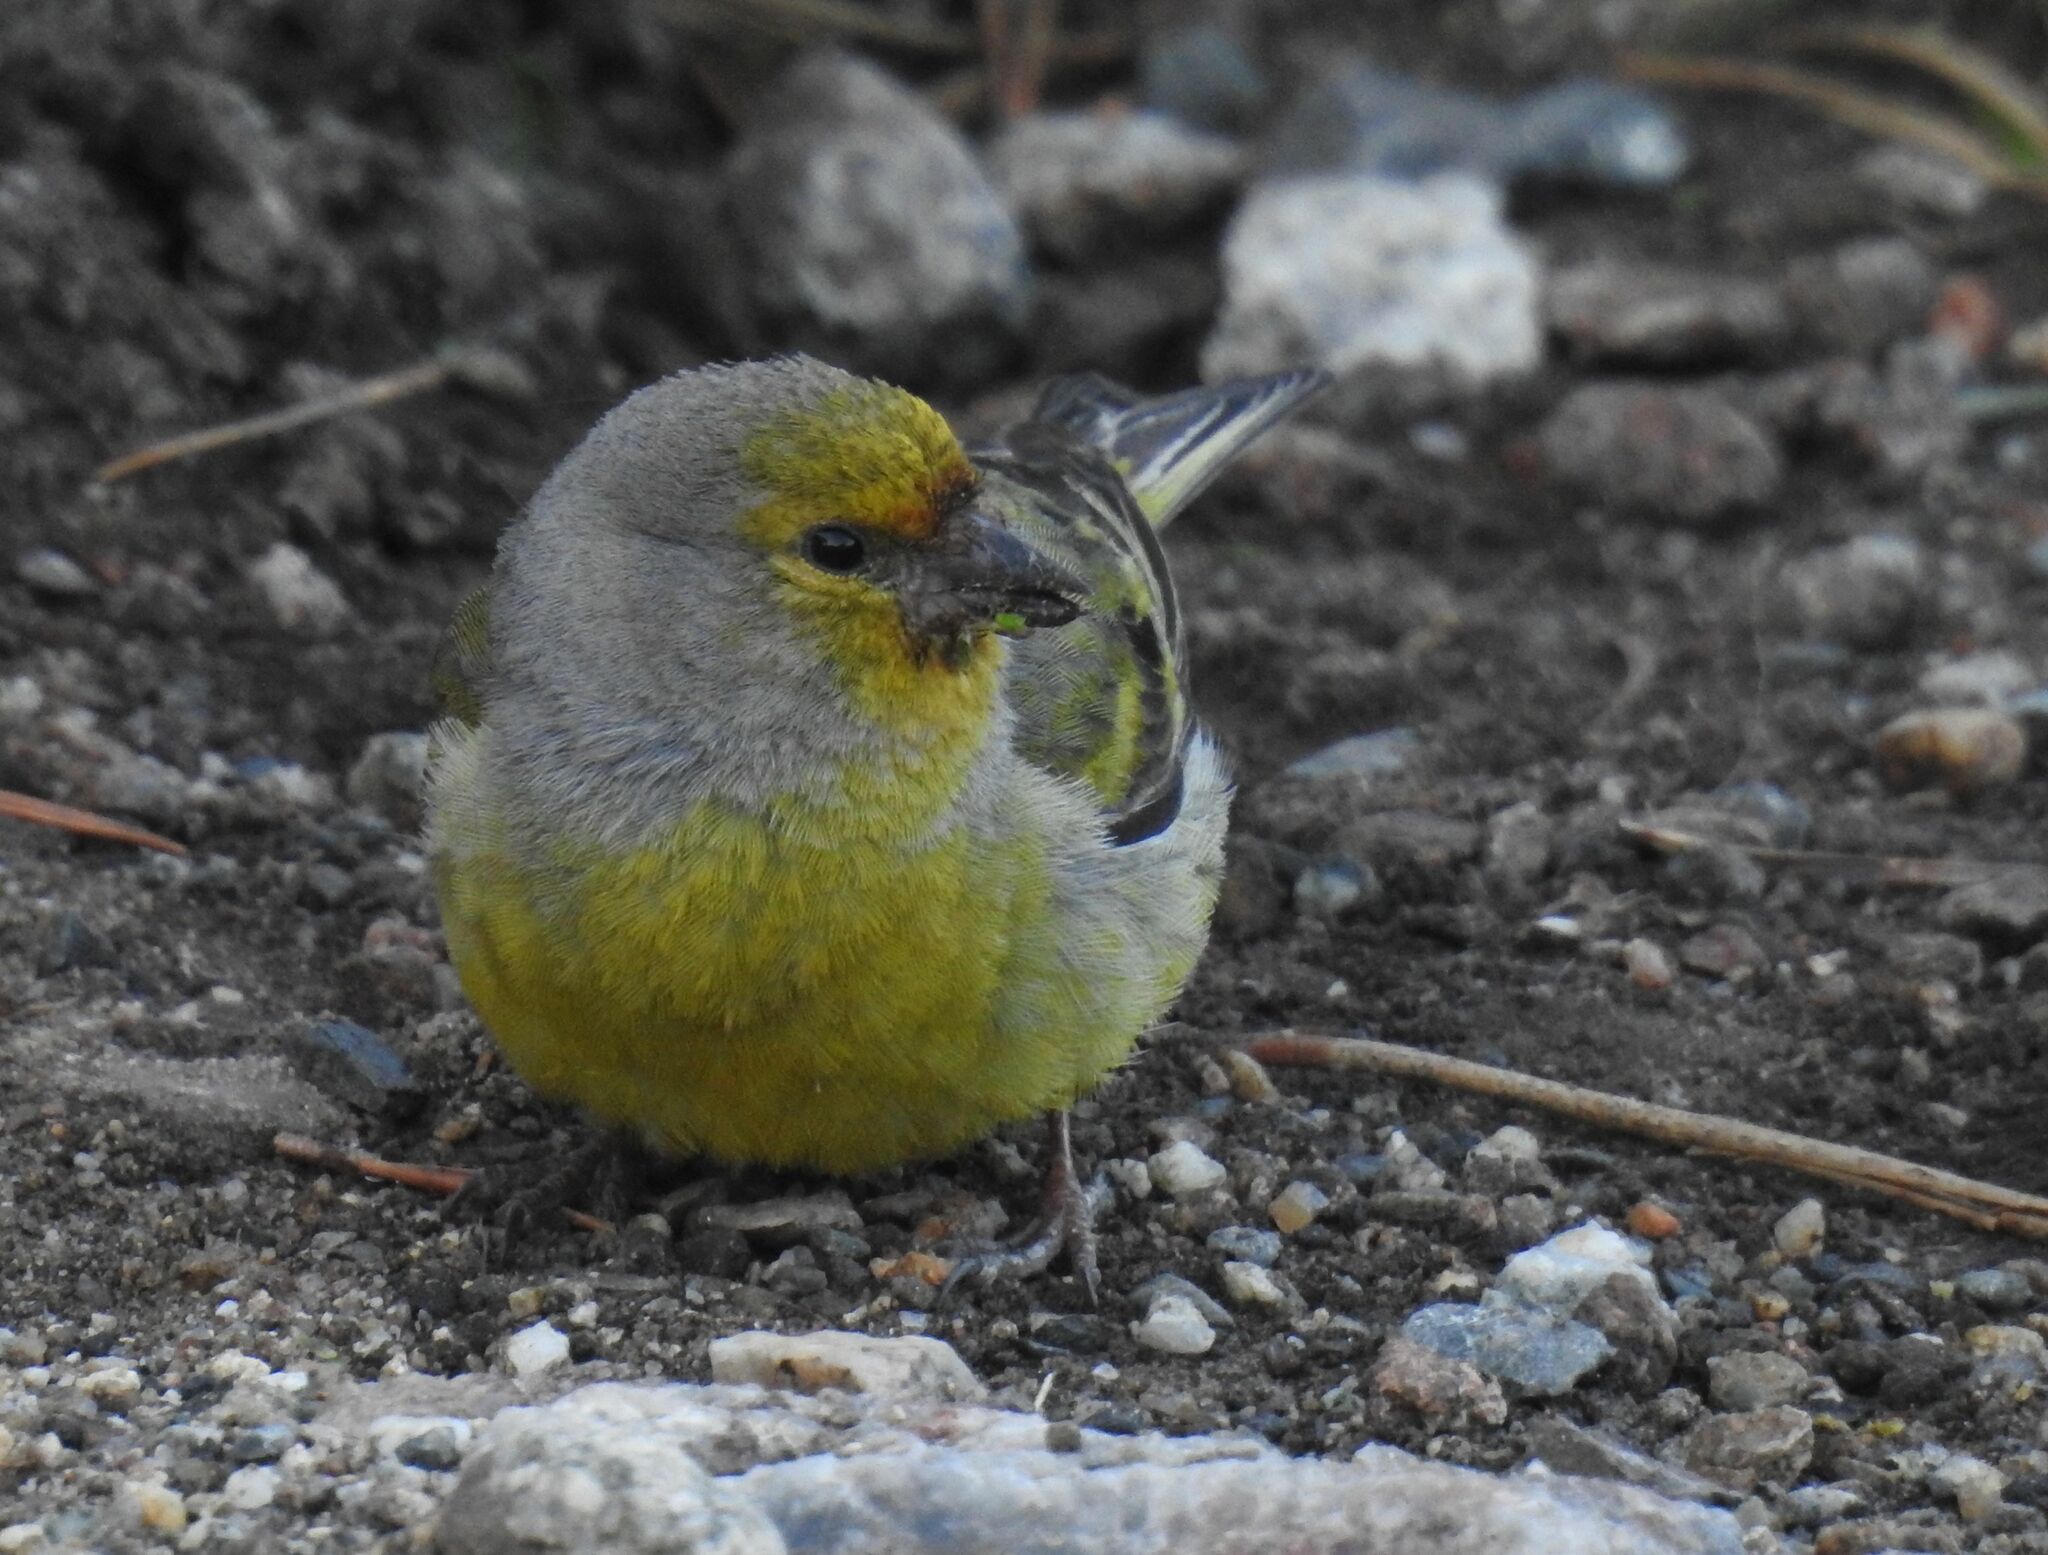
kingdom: Animalia
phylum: Chordata
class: Aves
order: Passeriformes
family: Fringillidae
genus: Carduelis
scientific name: Carduelis citrinella
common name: Citril finch
